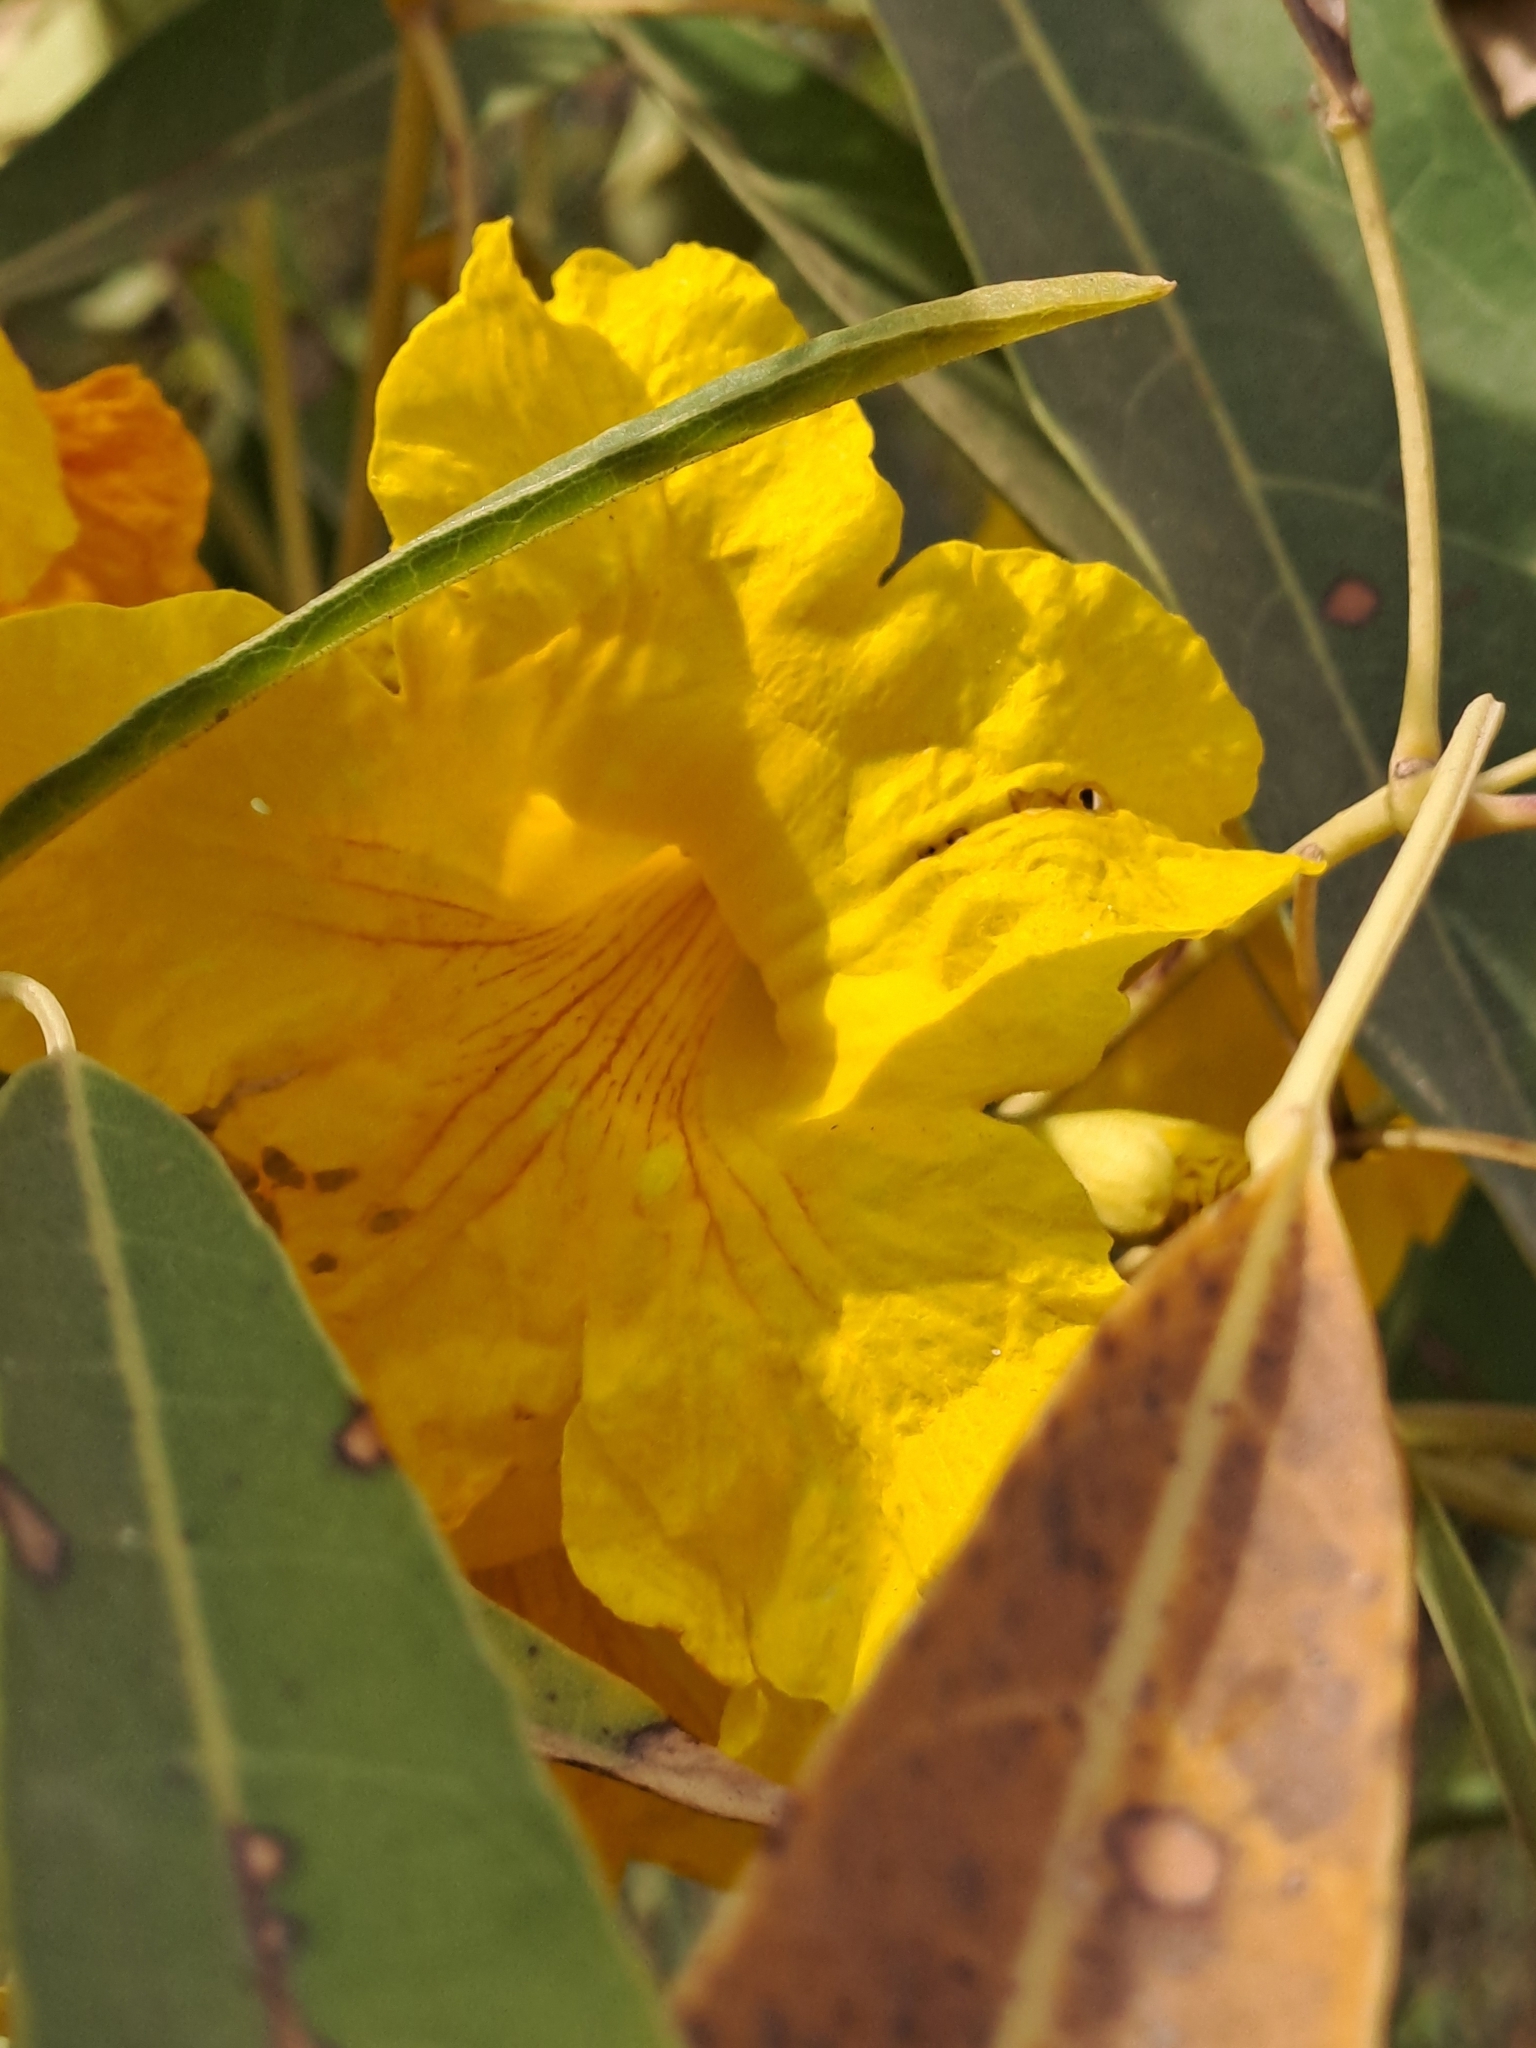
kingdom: Plantae
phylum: Tracheophyta
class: Magnoliopsida
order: Lamiales
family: Bignoniaceae
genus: Tabebuia
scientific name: Tabebuia aurea
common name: Caribbean trumpet-tree
